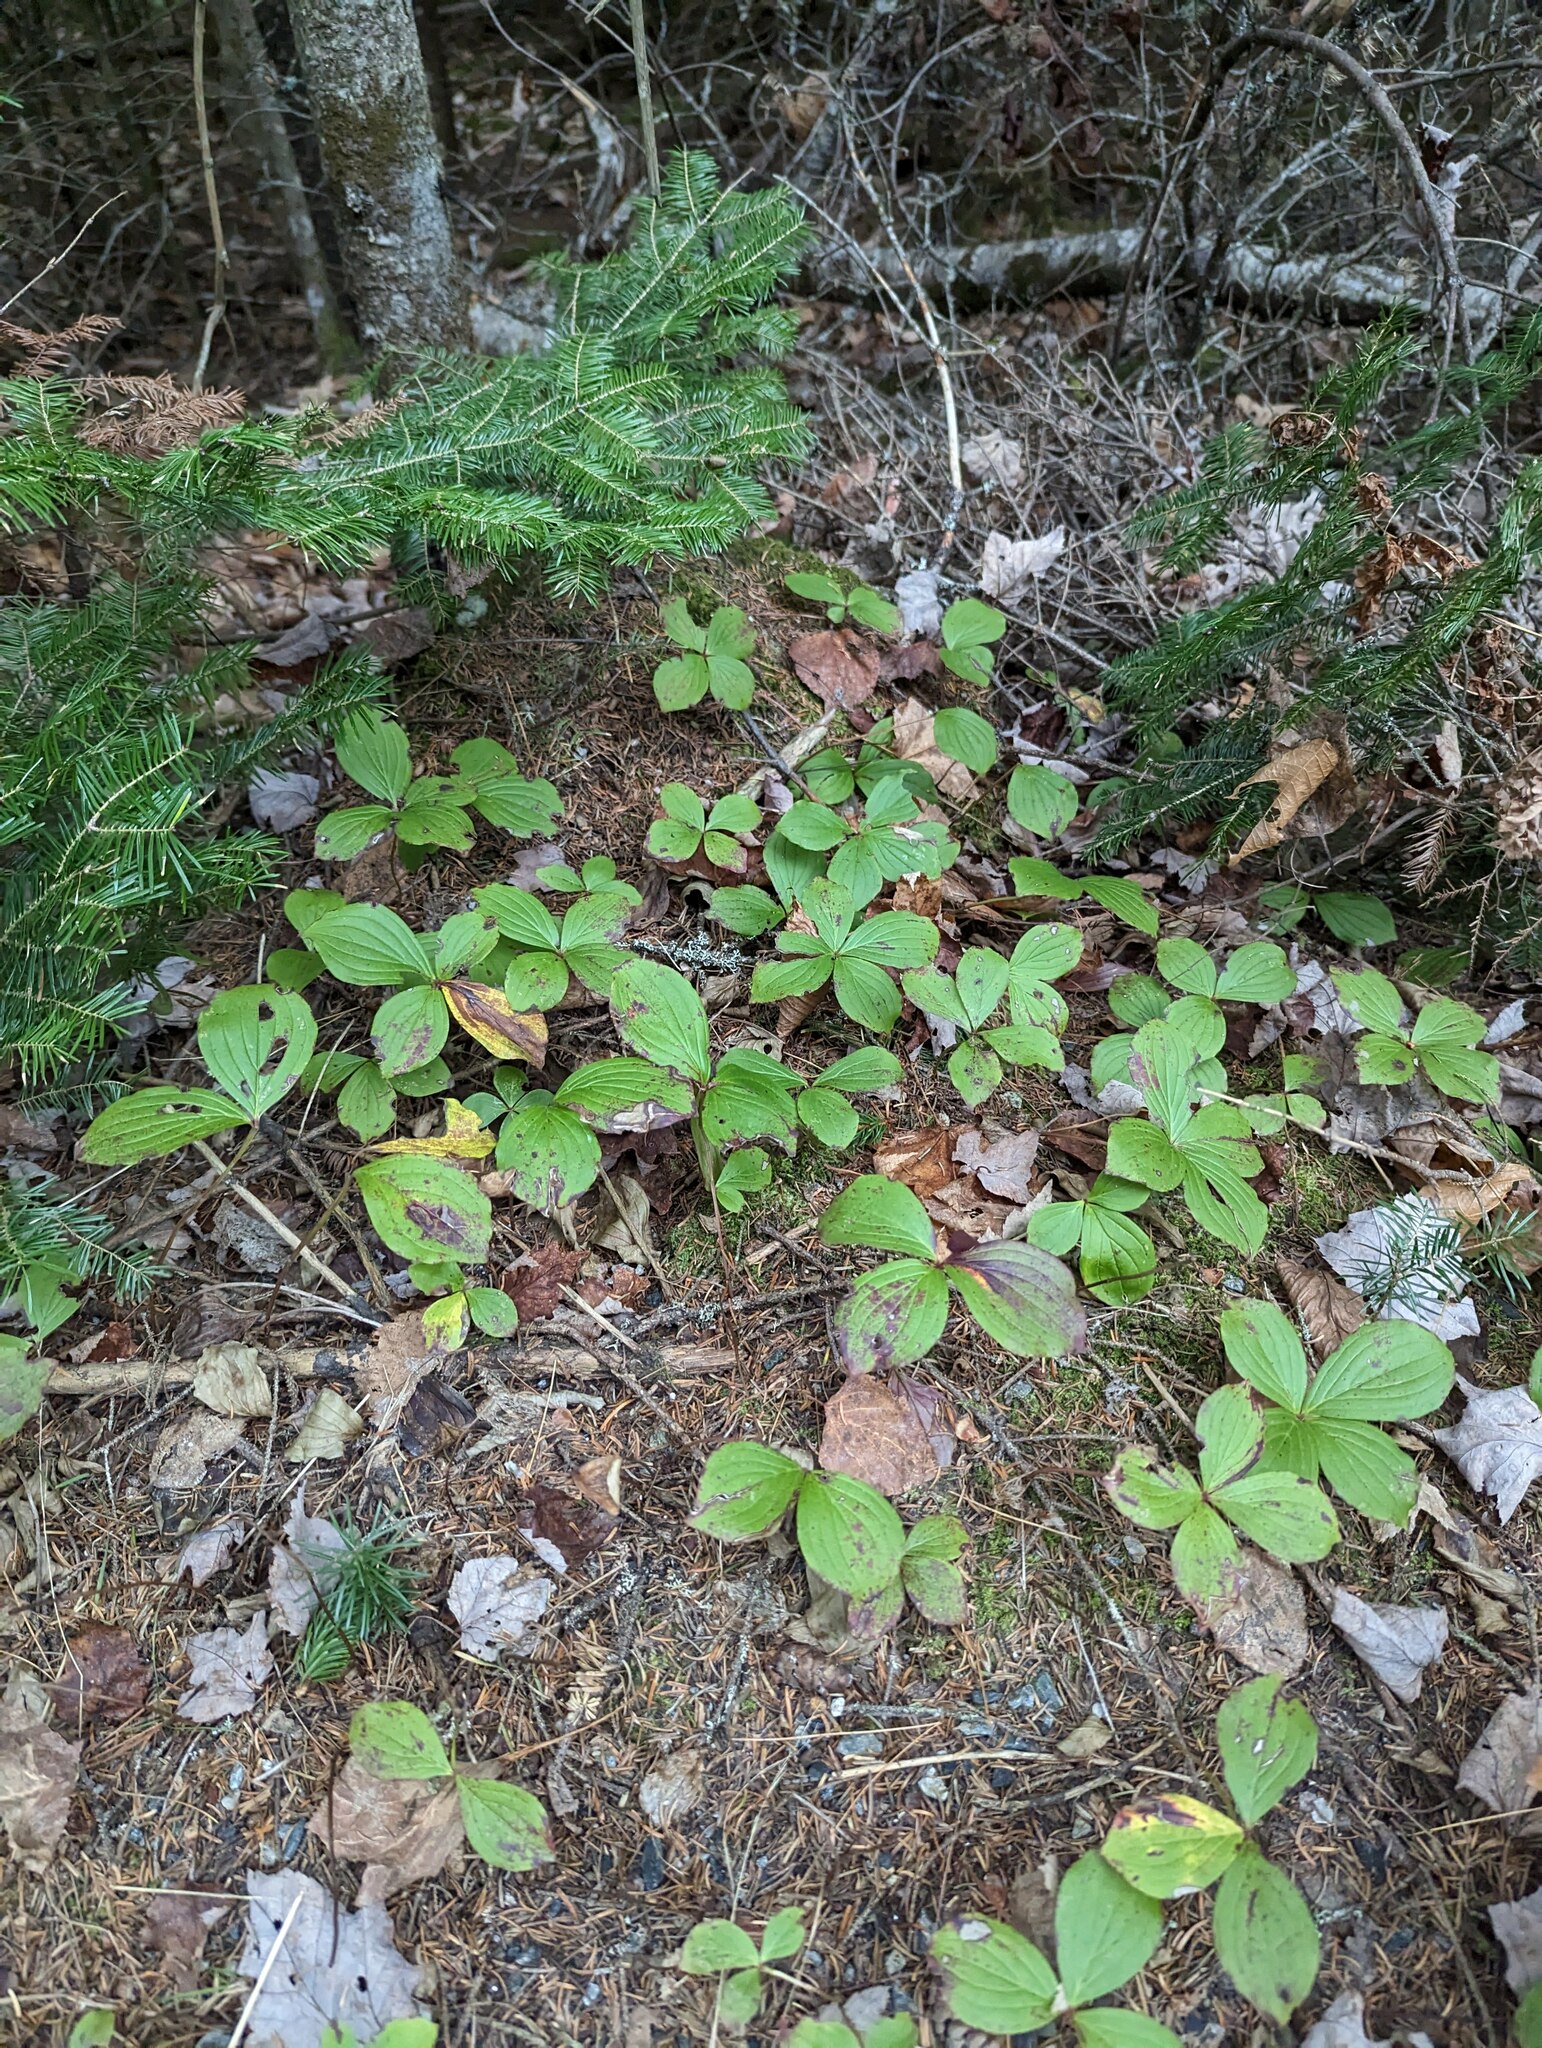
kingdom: Plantae
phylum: Tracheophyta
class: Magnoliopsida
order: Cornales
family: Cornaceae
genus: Cornus
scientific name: Cornus canadensis
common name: Creeping dogwood
